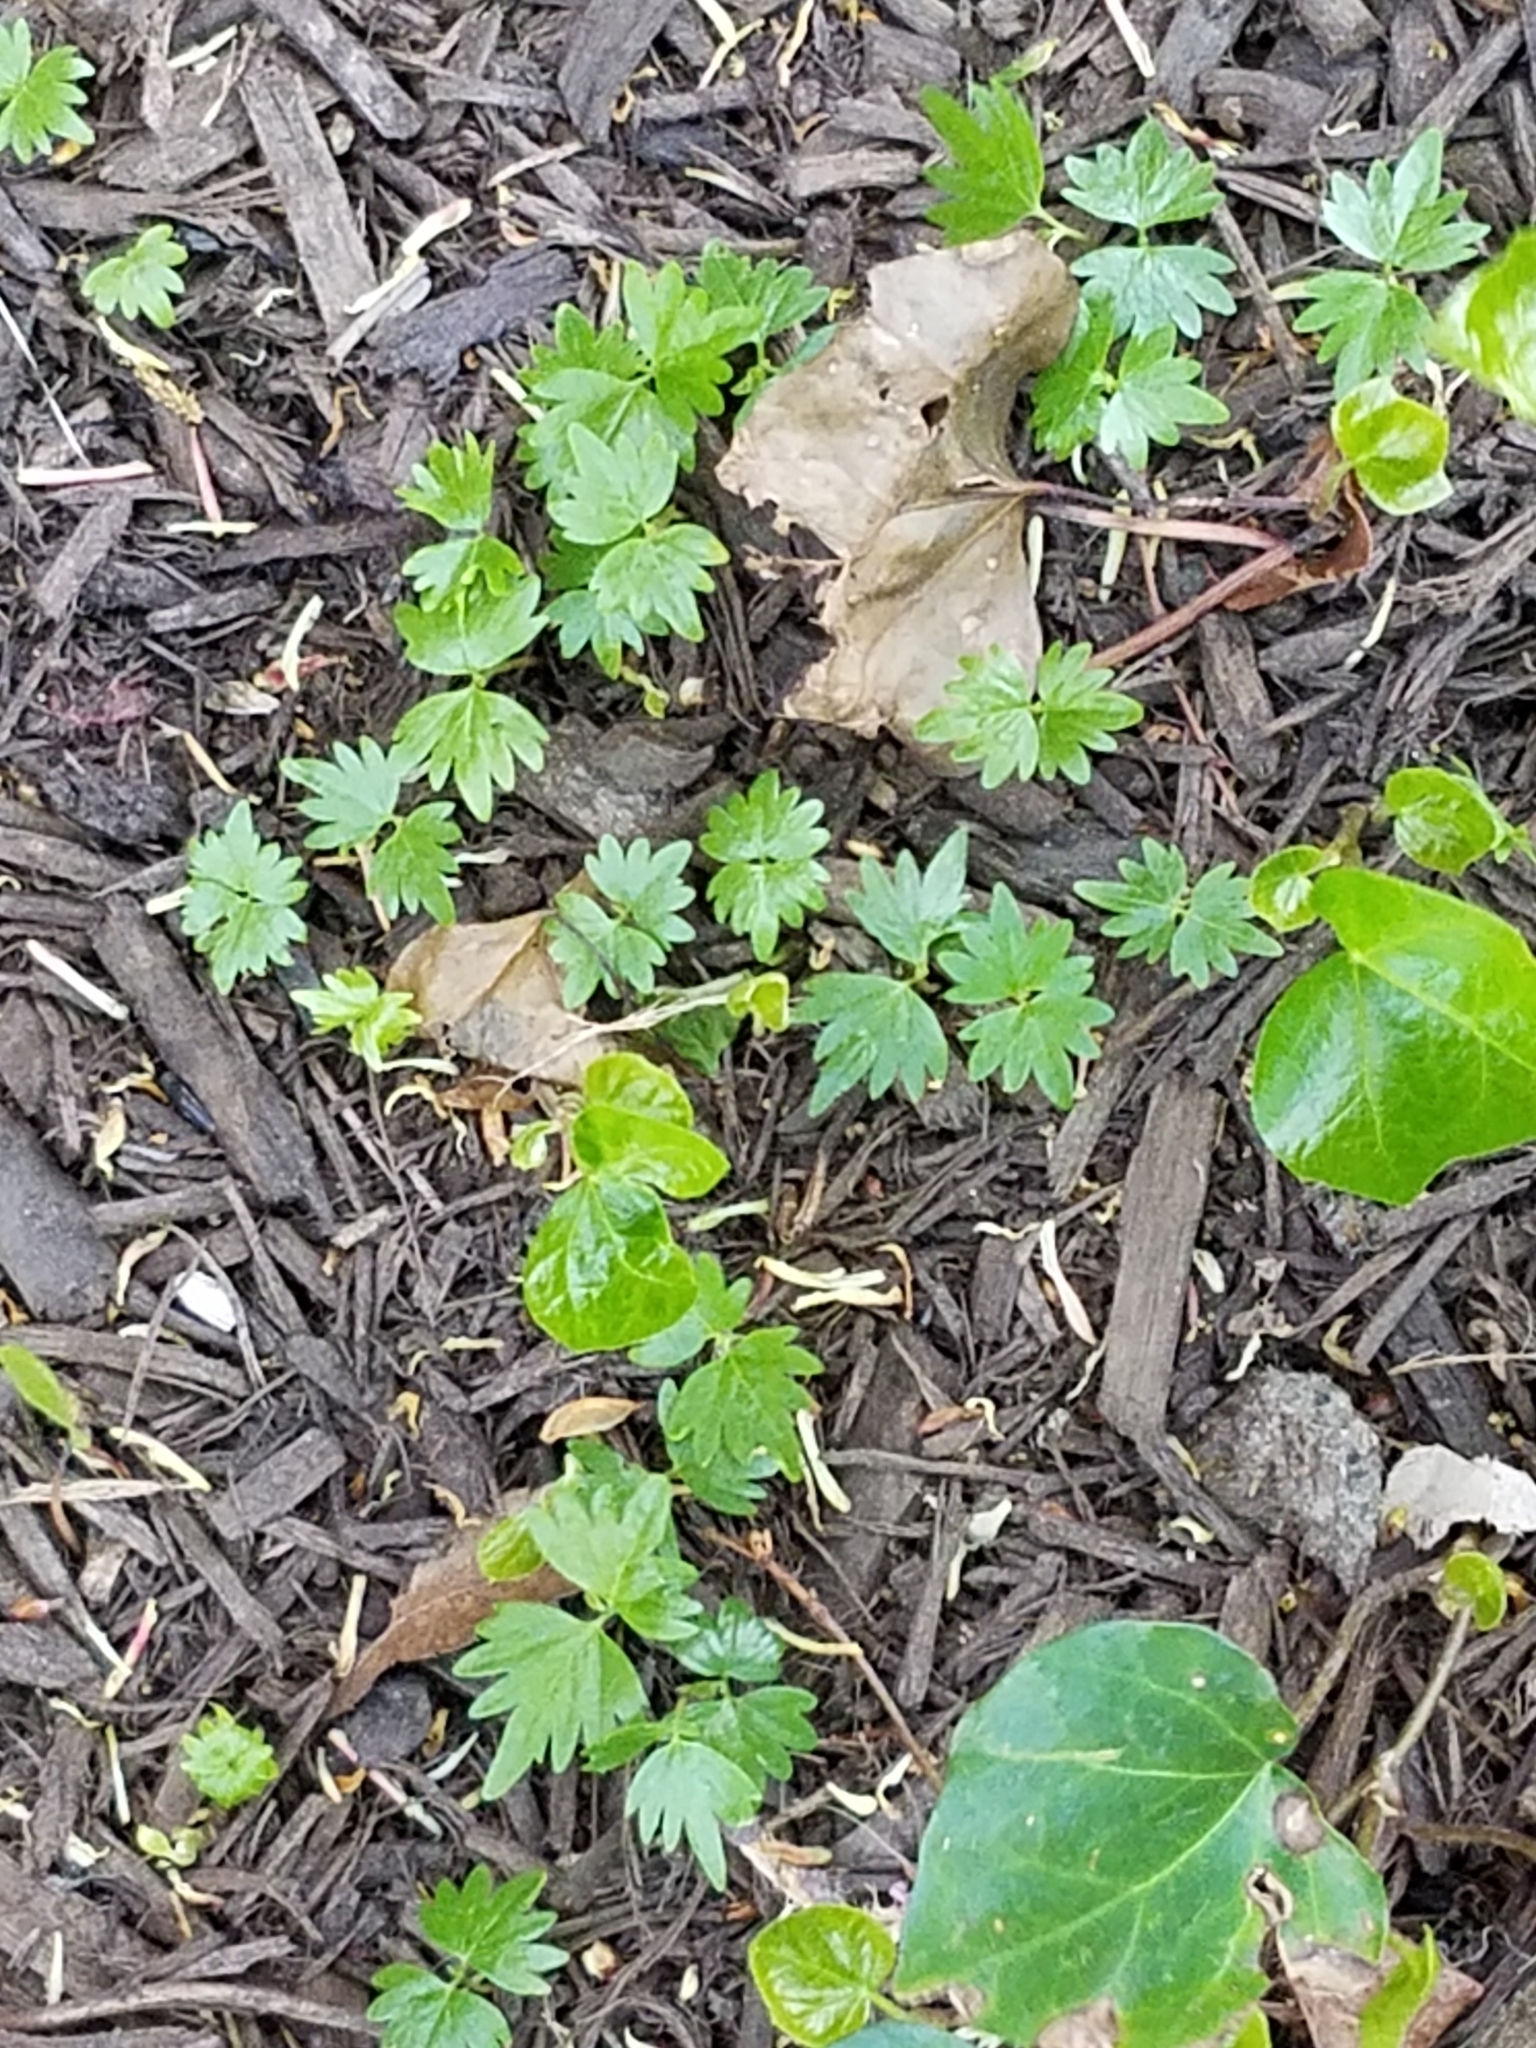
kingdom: Plantae
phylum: Tracheophyta
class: Magnoliopsida
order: Malvales
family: Malvaceae
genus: Tilia
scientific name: Tilia cordata
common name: Small-leaved lime
